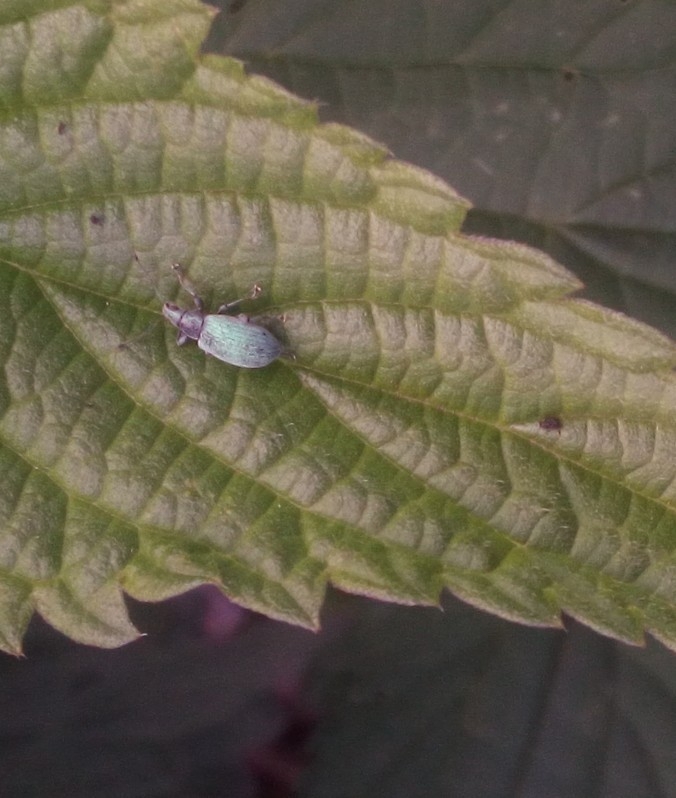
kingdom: Animalia
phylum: Arthropoda
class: Insecta
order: Coleoptera
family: Curculionidae
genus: Phyllobius
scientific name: Phyllobius pomaceus
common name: Green nettle weevil
